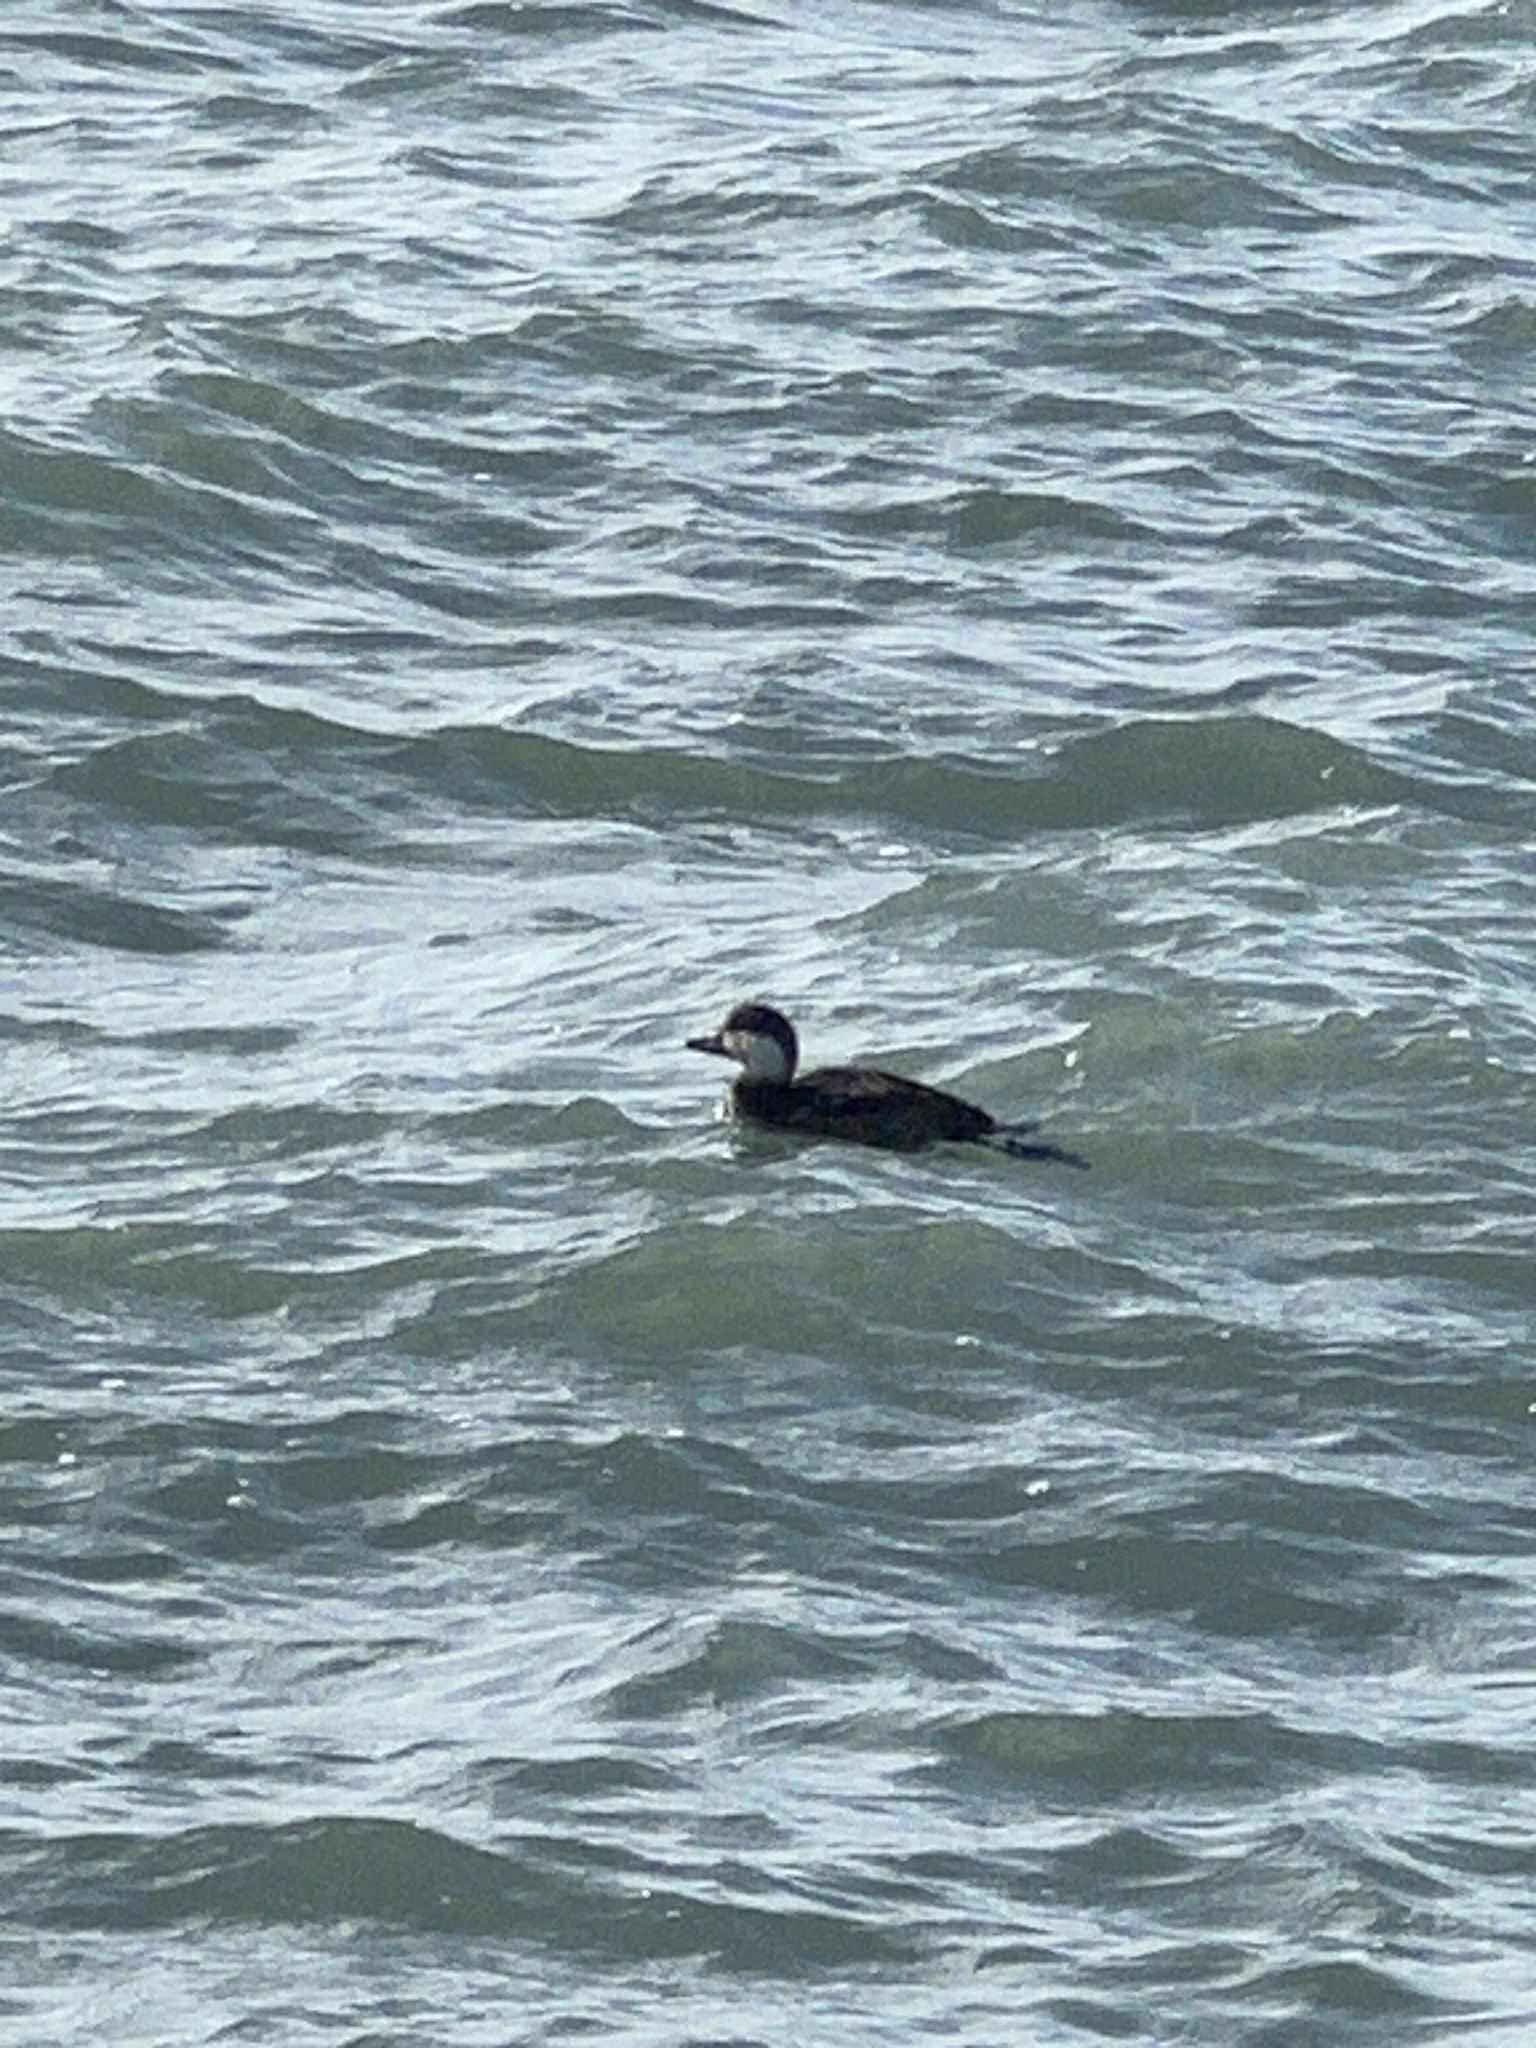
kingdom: Animalia
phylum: Chordata
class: Aves
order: Anseriformes
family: Anatidae
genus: Melanitta
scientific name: Melanitta americana
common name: Black scoter
